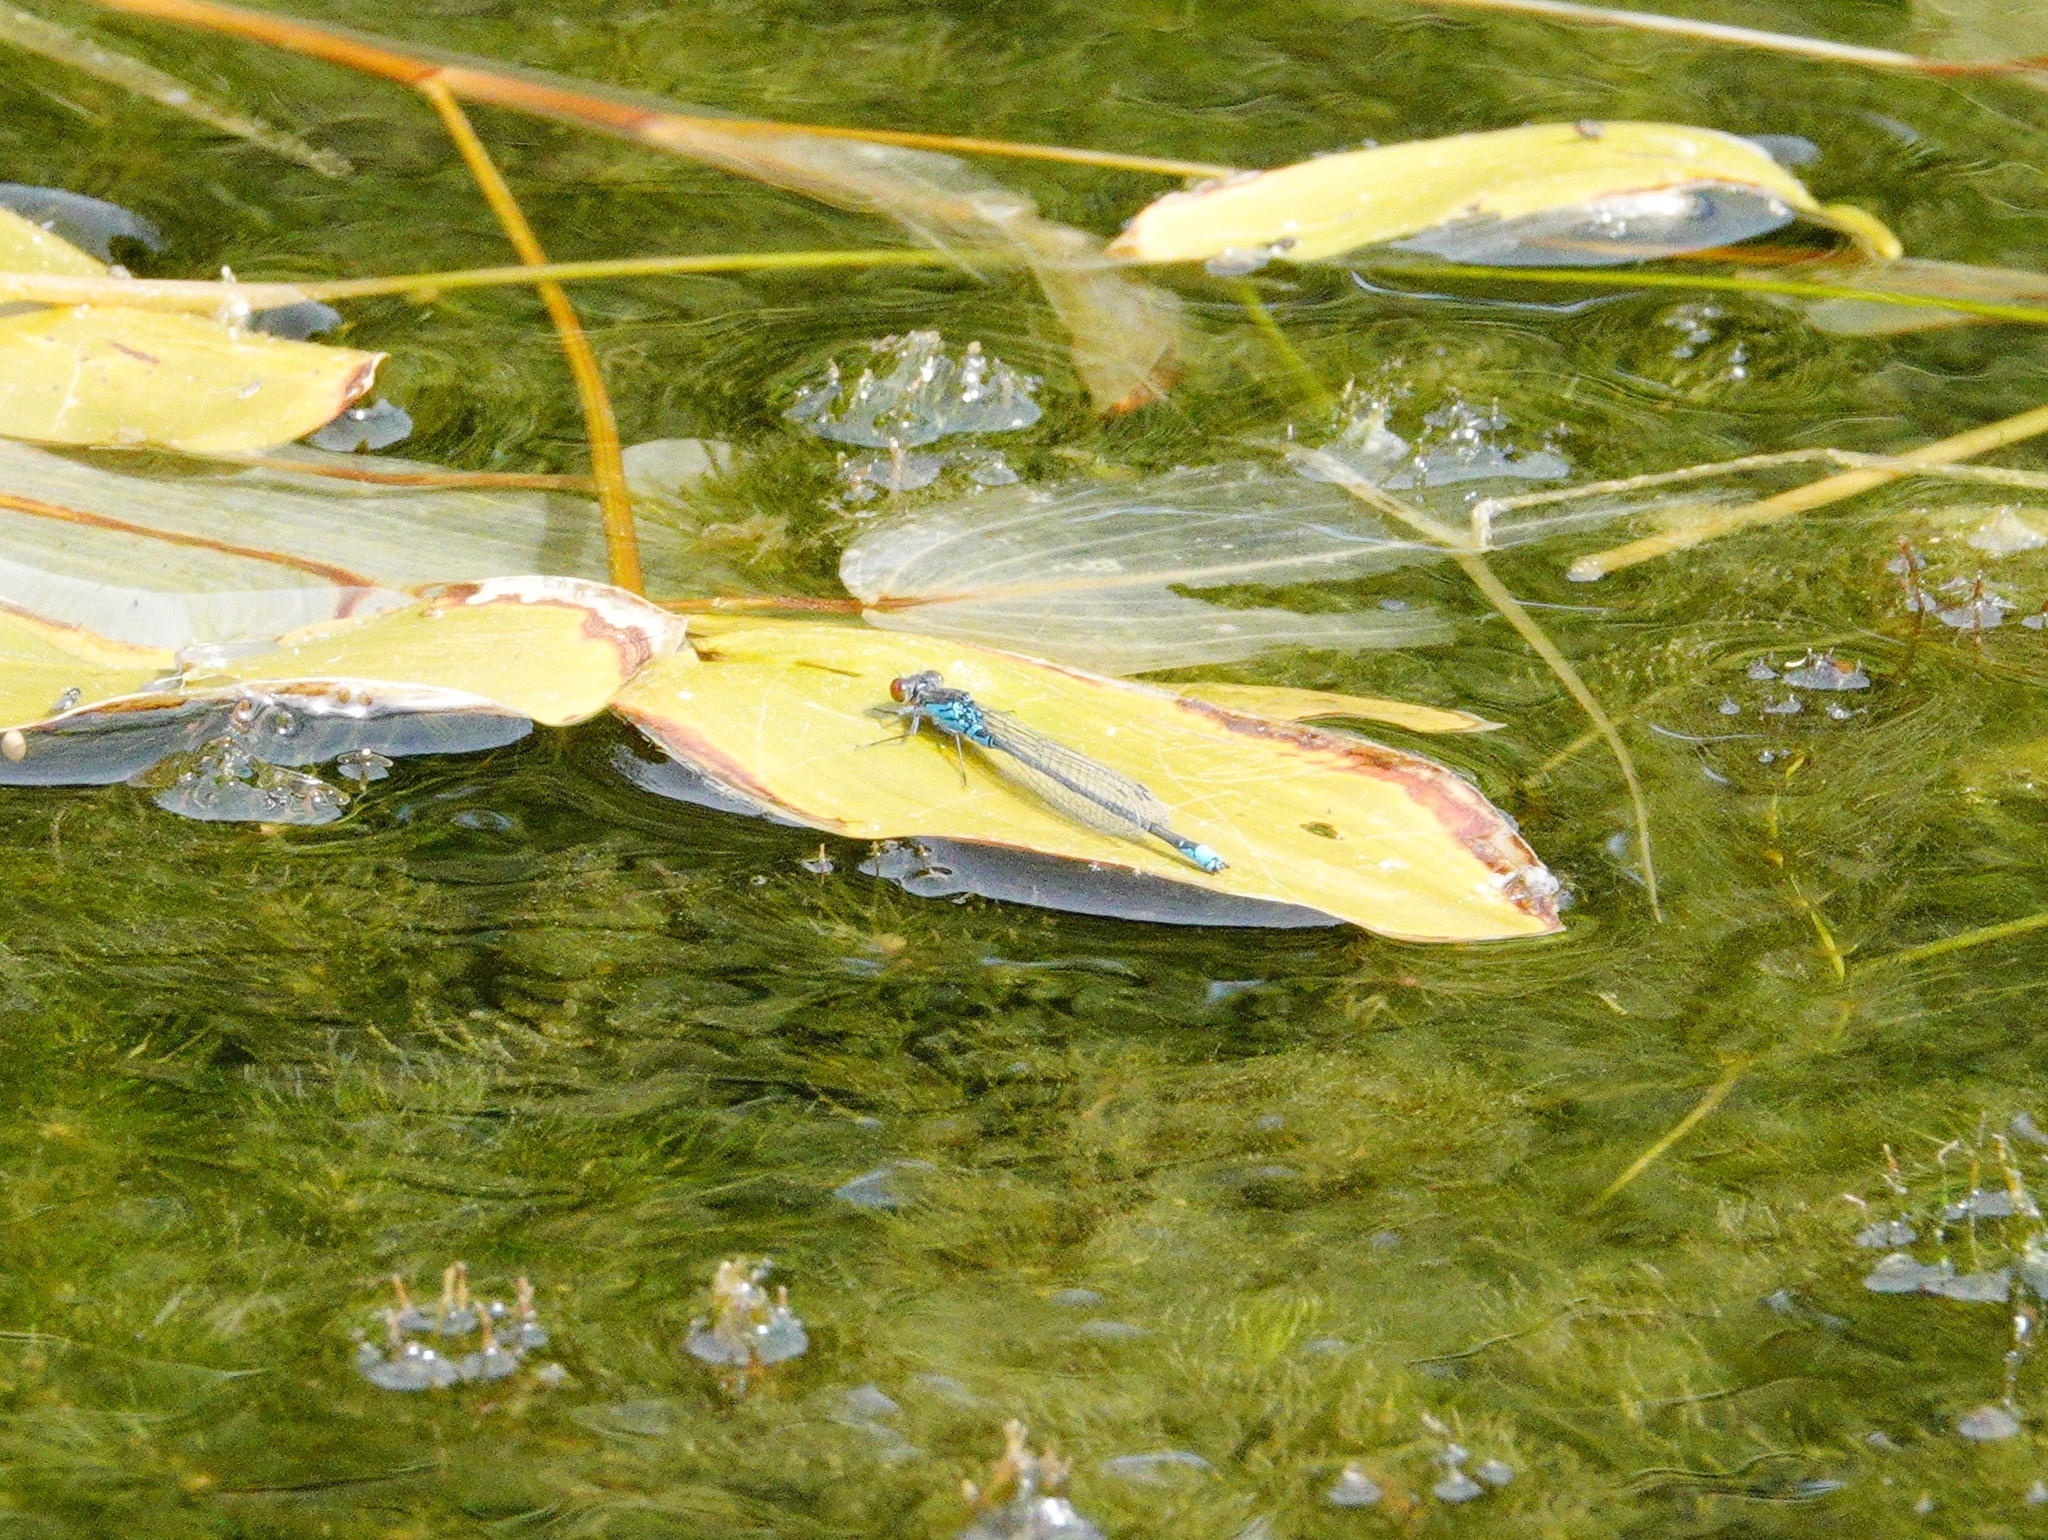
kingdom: Animalia
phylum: Arthropoda
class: Insecta
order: Odonata
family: Coenagrionidae
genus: Erythromma
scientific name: Erythromma viridulum
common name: Small red-eyed damselfly
